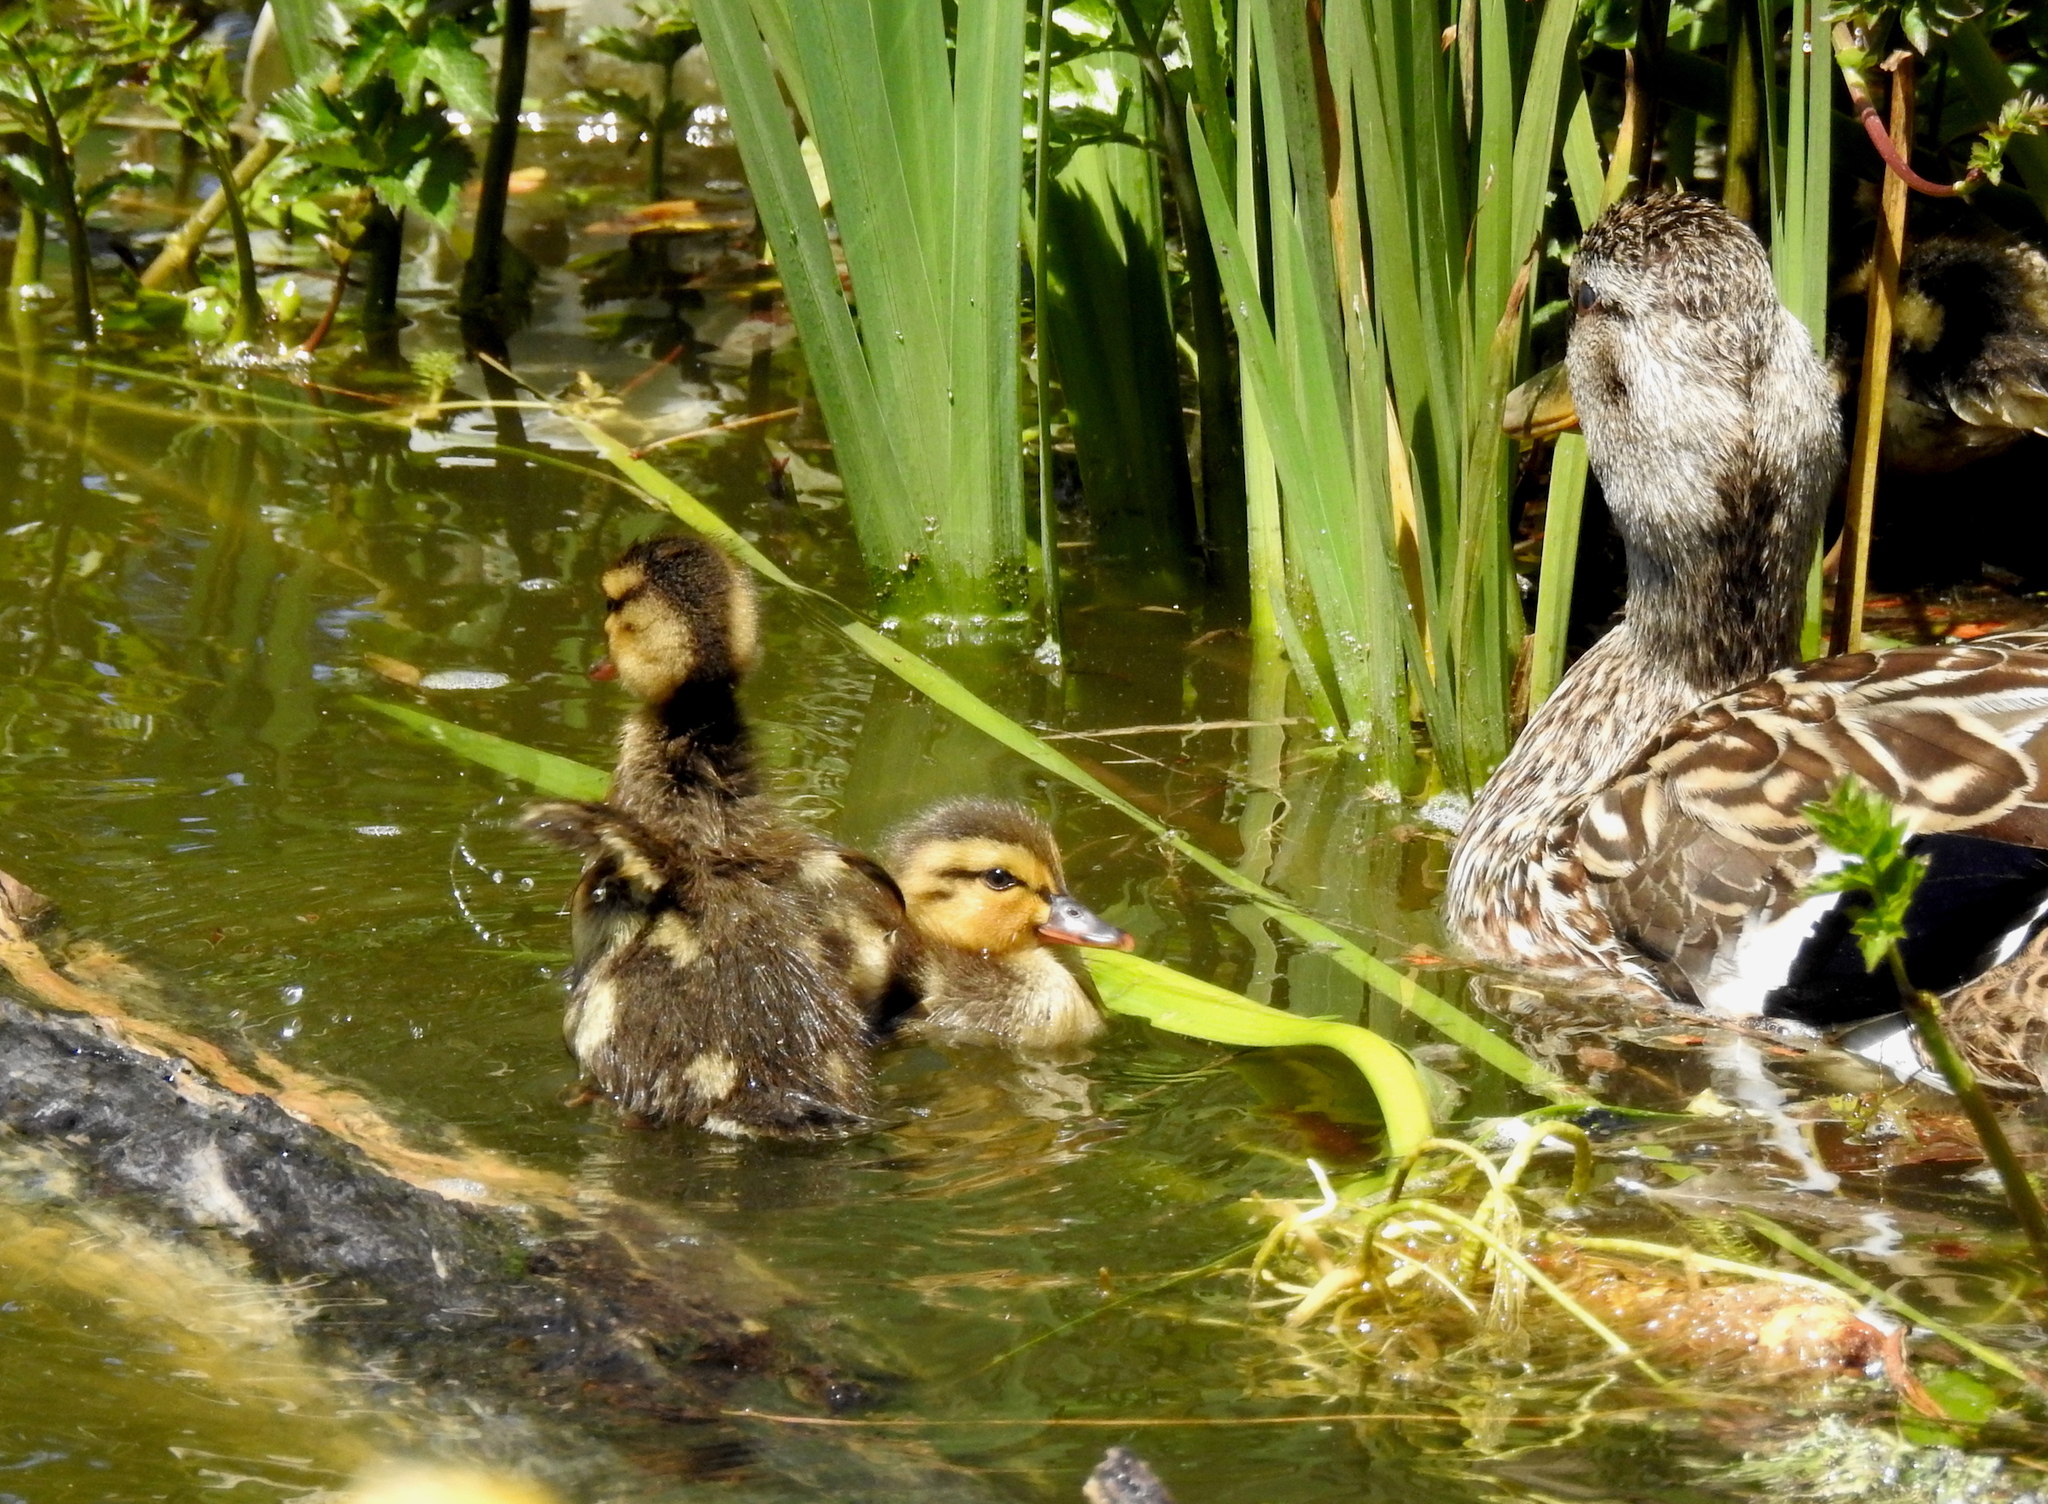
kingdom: Animalia
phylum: Chordata
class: Aves
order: Anseriformes
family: Anatidae
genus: Anas
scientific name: Anas platyrhynchos
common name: Mallard
